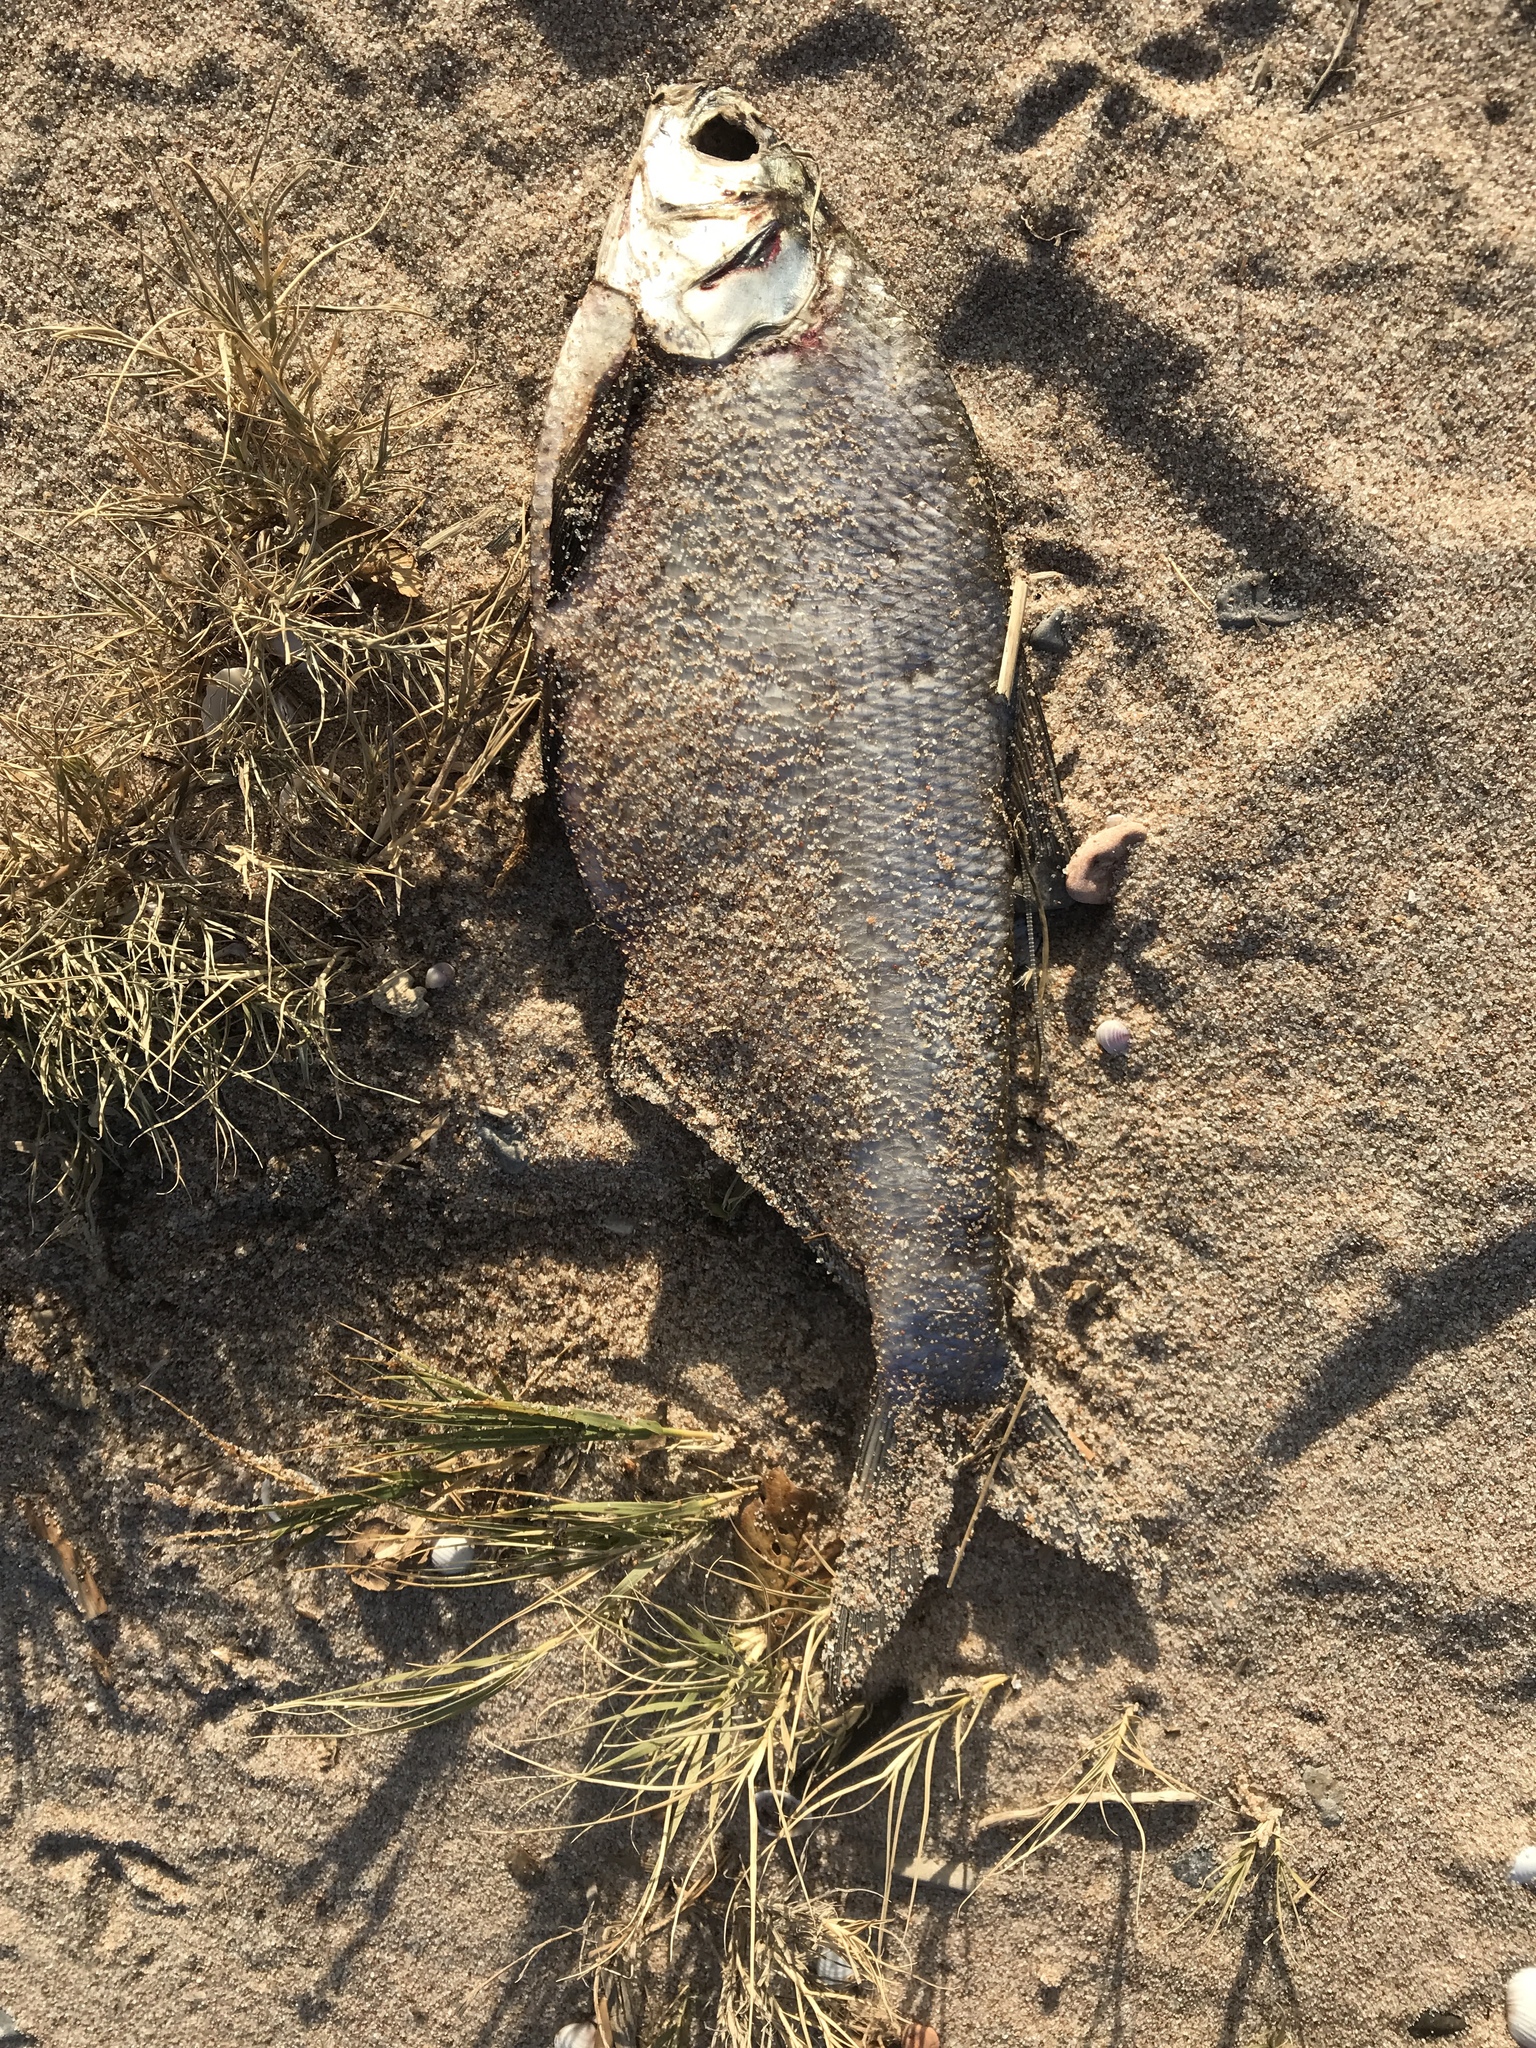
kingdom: Animalia
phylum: Chordata
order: Clupeiformes
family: Clupeidae
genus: Dorosoma
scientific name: Dorosoma cepedianum
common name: Gizzard shad
